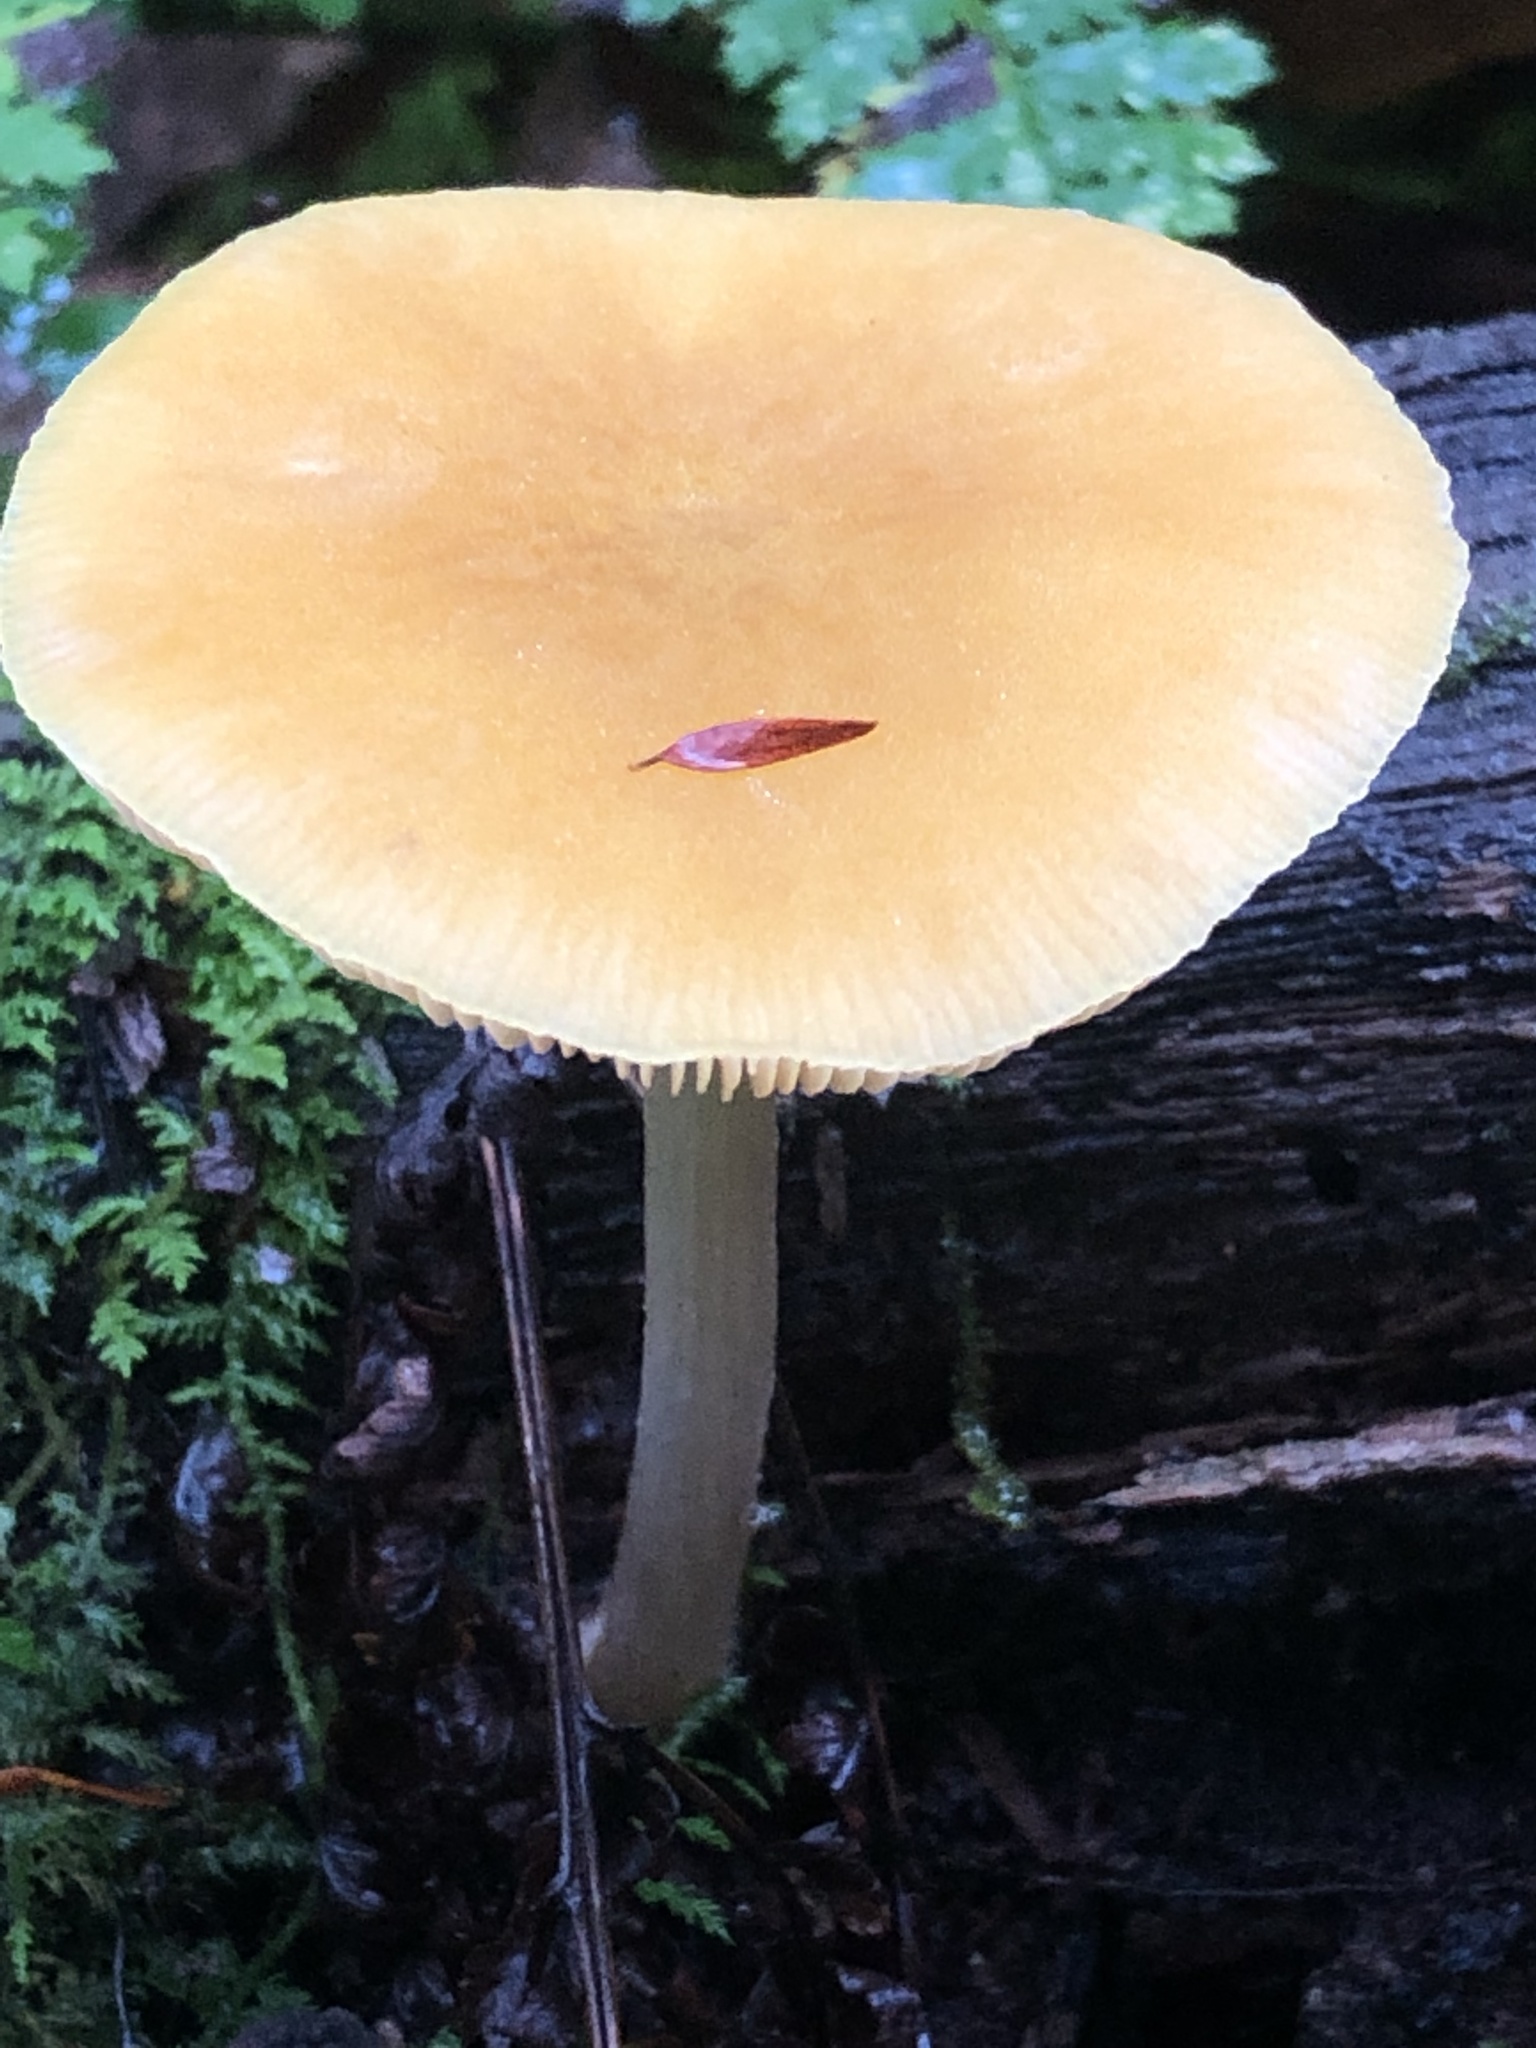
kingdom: Fungi
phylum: Basidiomycota
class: Agaricomycetes
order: Agaricales
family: Pluteaceae
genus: Pluteus
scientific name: Pluteus chrysophlebius
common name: Yellow deer mushroom
